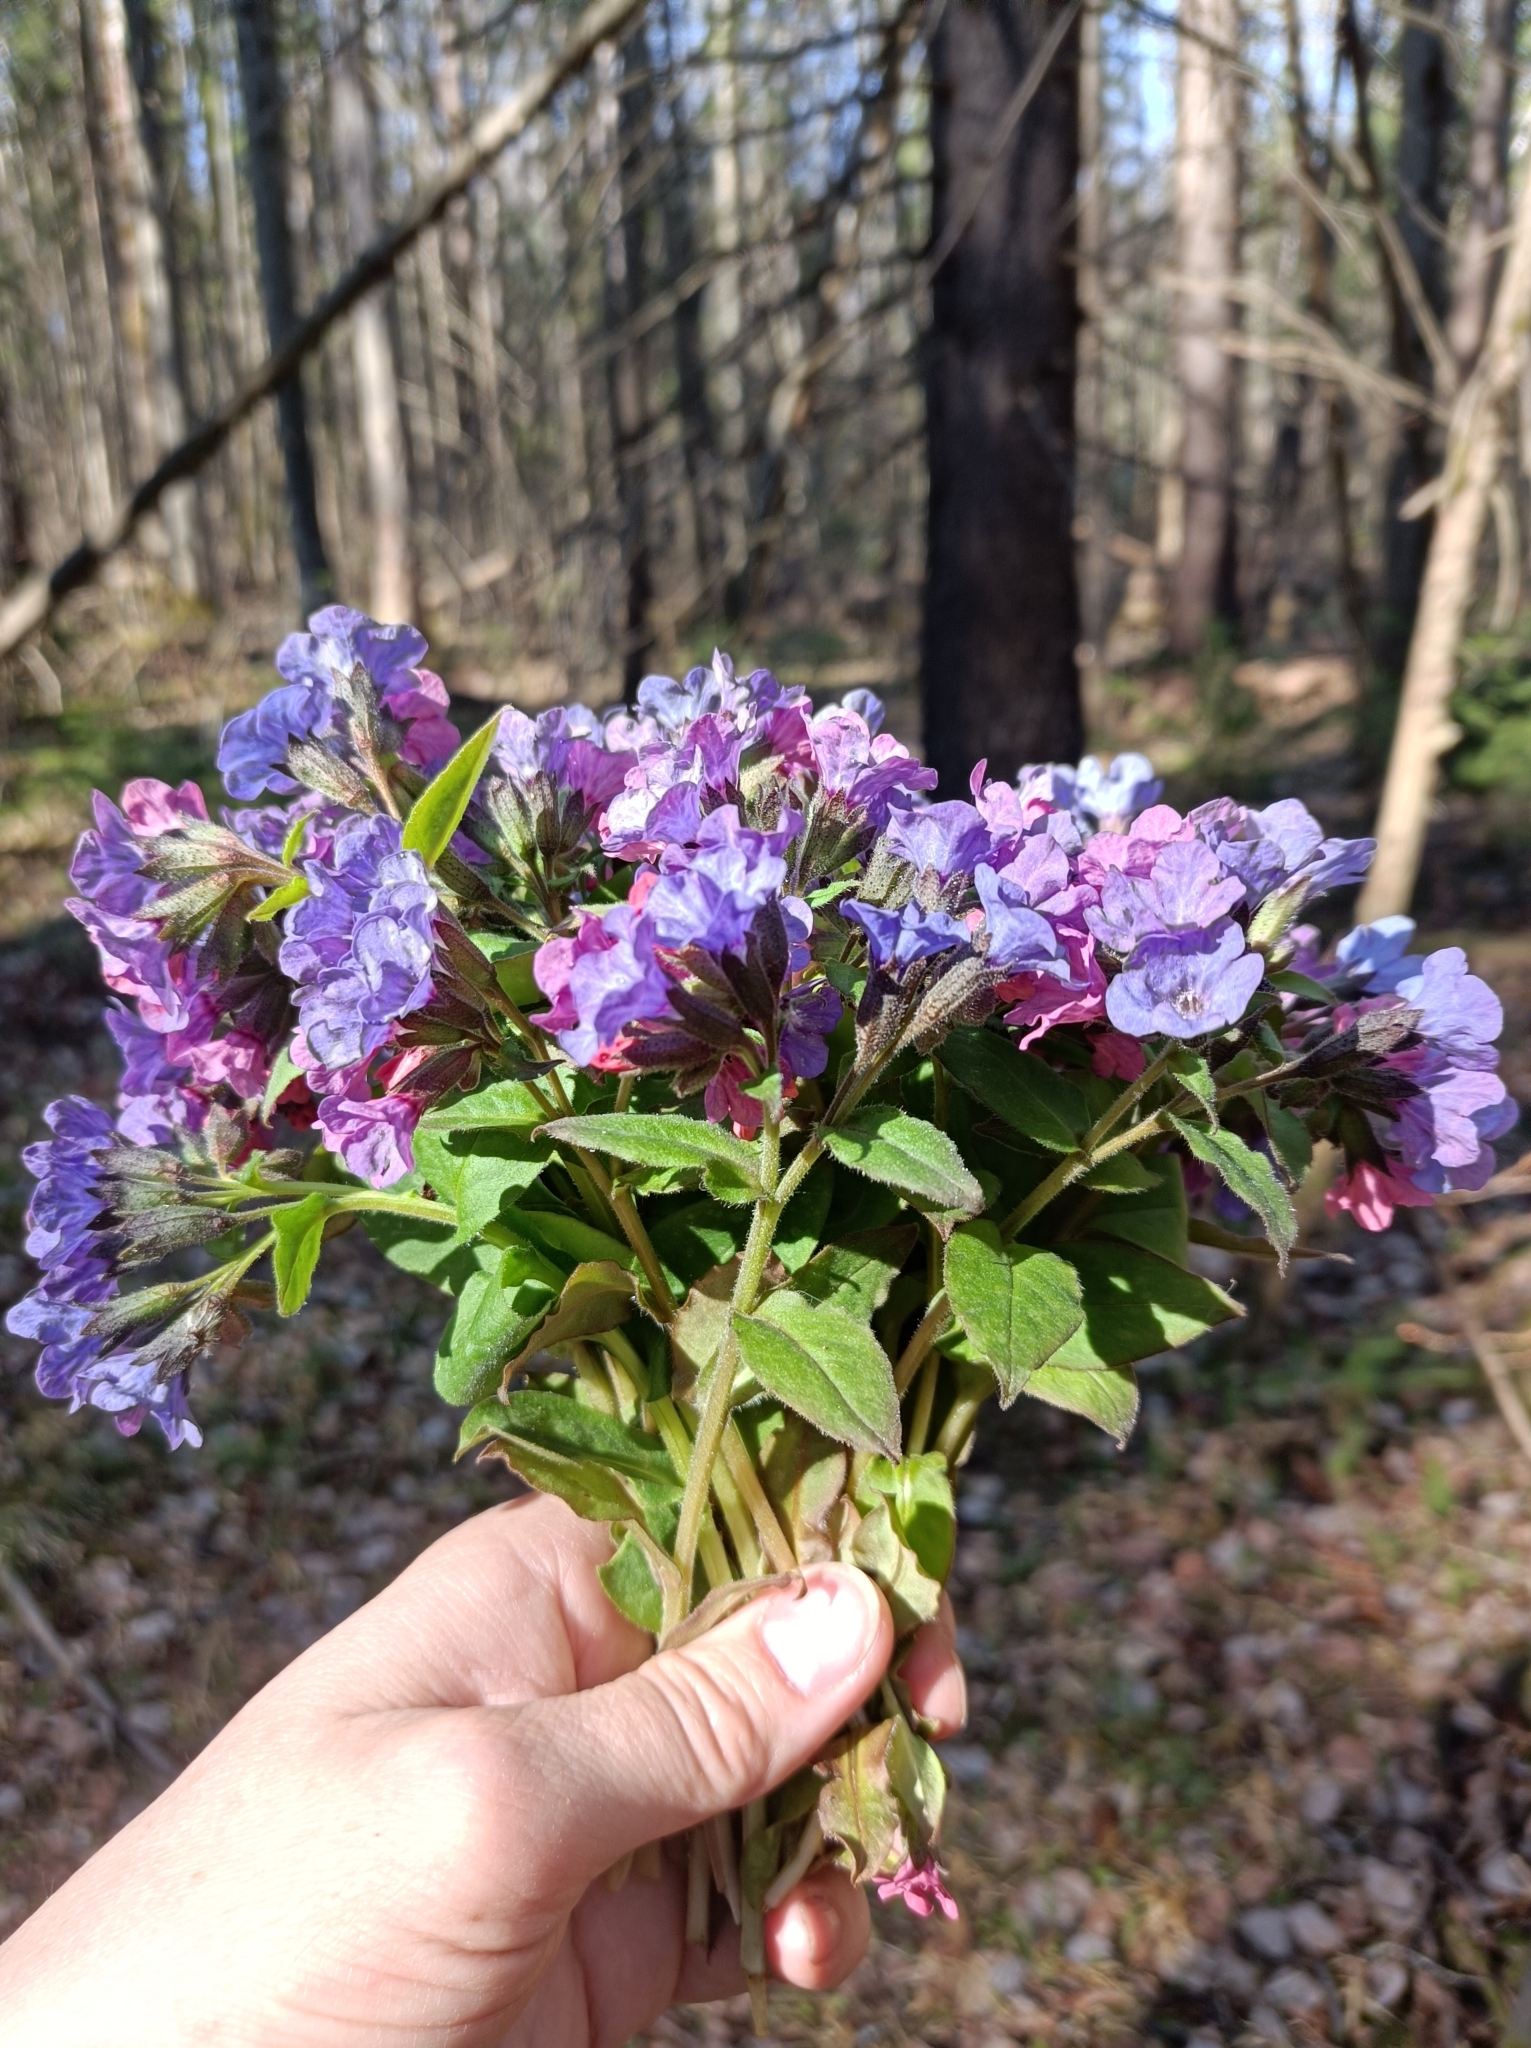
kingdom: Plantae
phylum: Tracheophyta
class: Magnoliopsida
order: Boraginales
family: Boraginaceae
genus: Pulmonaria
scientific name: Pulmonaria obscura
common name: Suffolk lungwort
